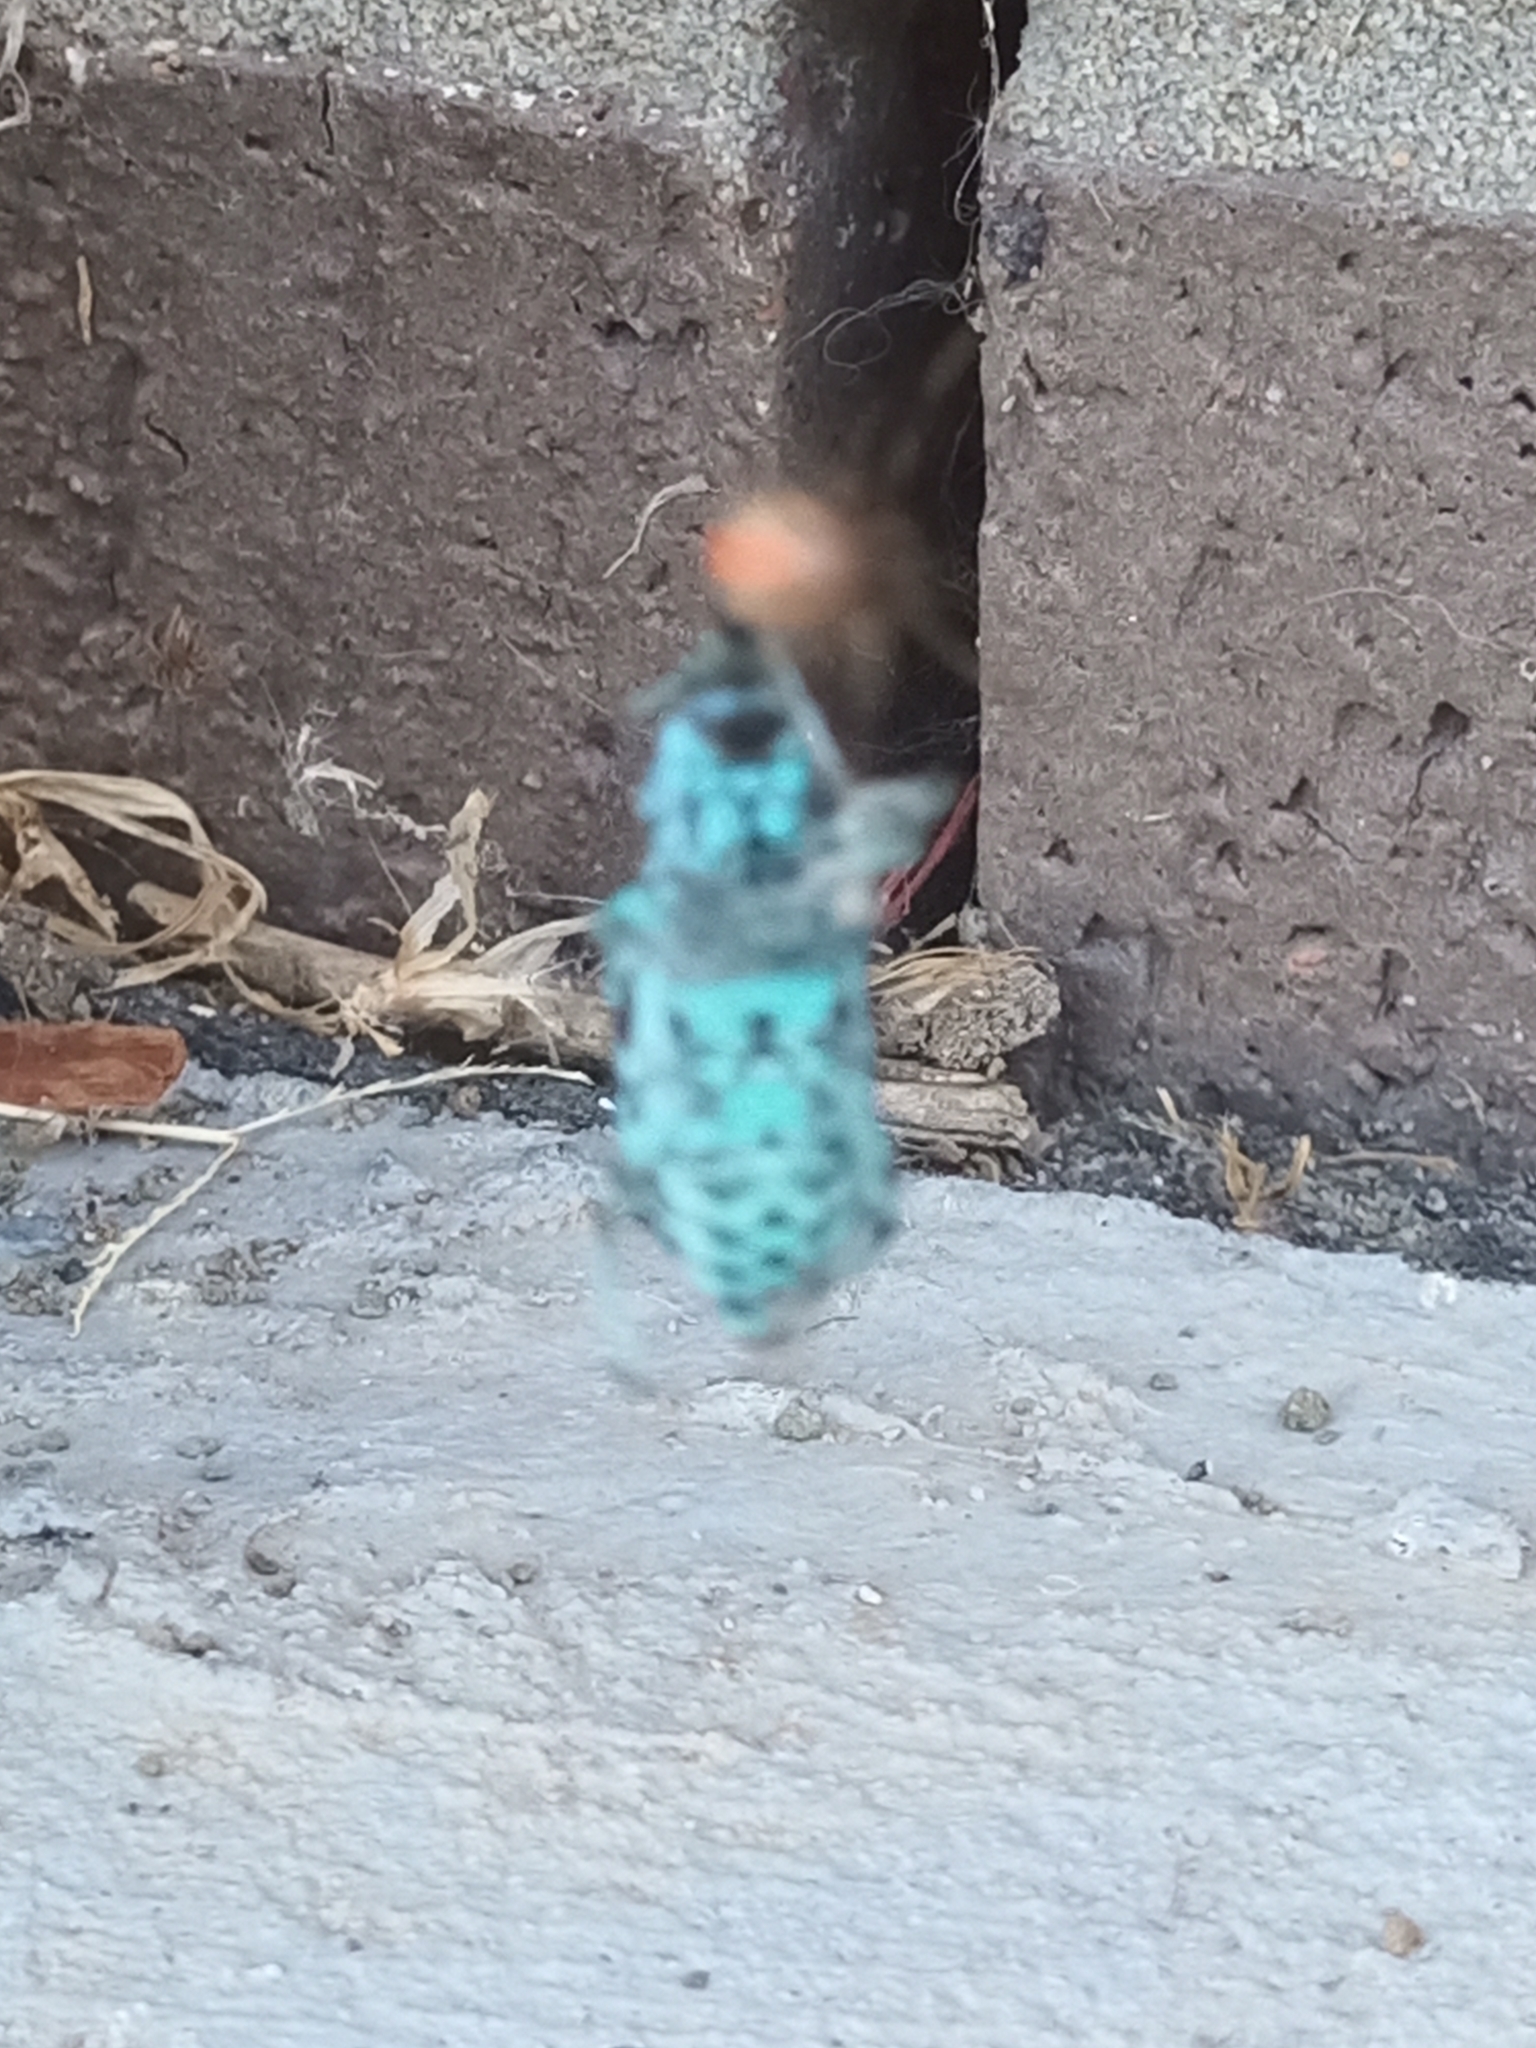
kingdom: Animalia
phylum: Arthropoda
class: Insecta
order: Coleoptera
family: Curculionidae
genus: Chrysolopus
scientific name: Chrysolopus spectabilis
